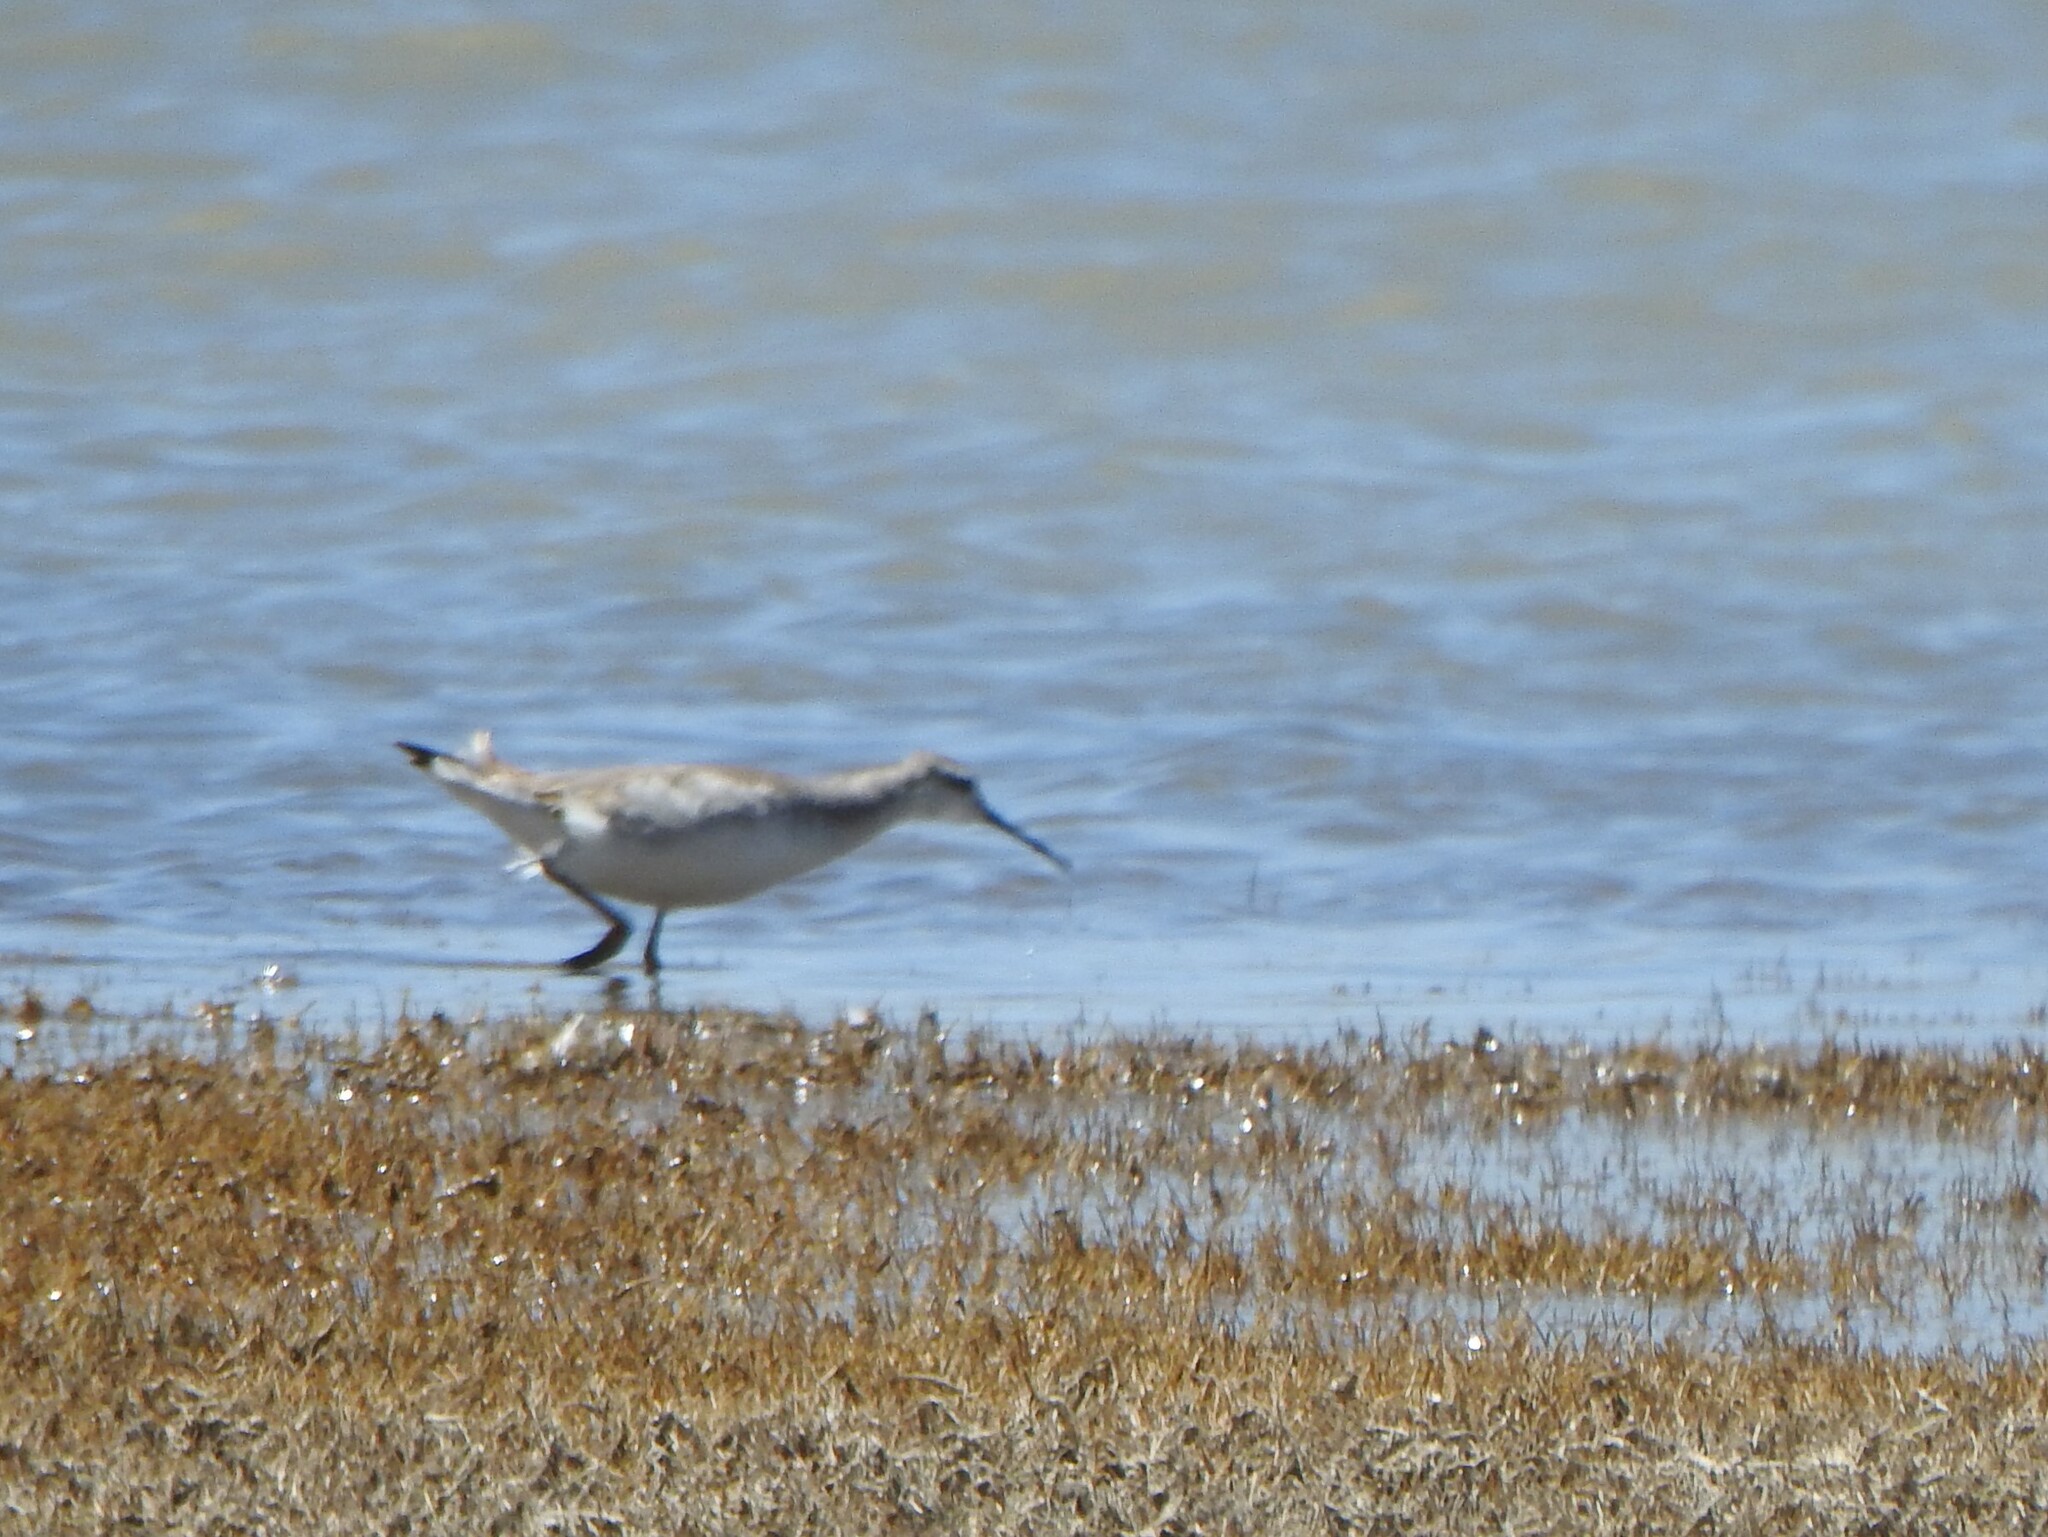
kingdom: Animalia
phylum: Chordata
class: Aves
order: Charadriiformes
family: Scolopacidae
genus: Phalaropus
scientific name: Phalaropus tricolor
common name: Wilson's phalarope
